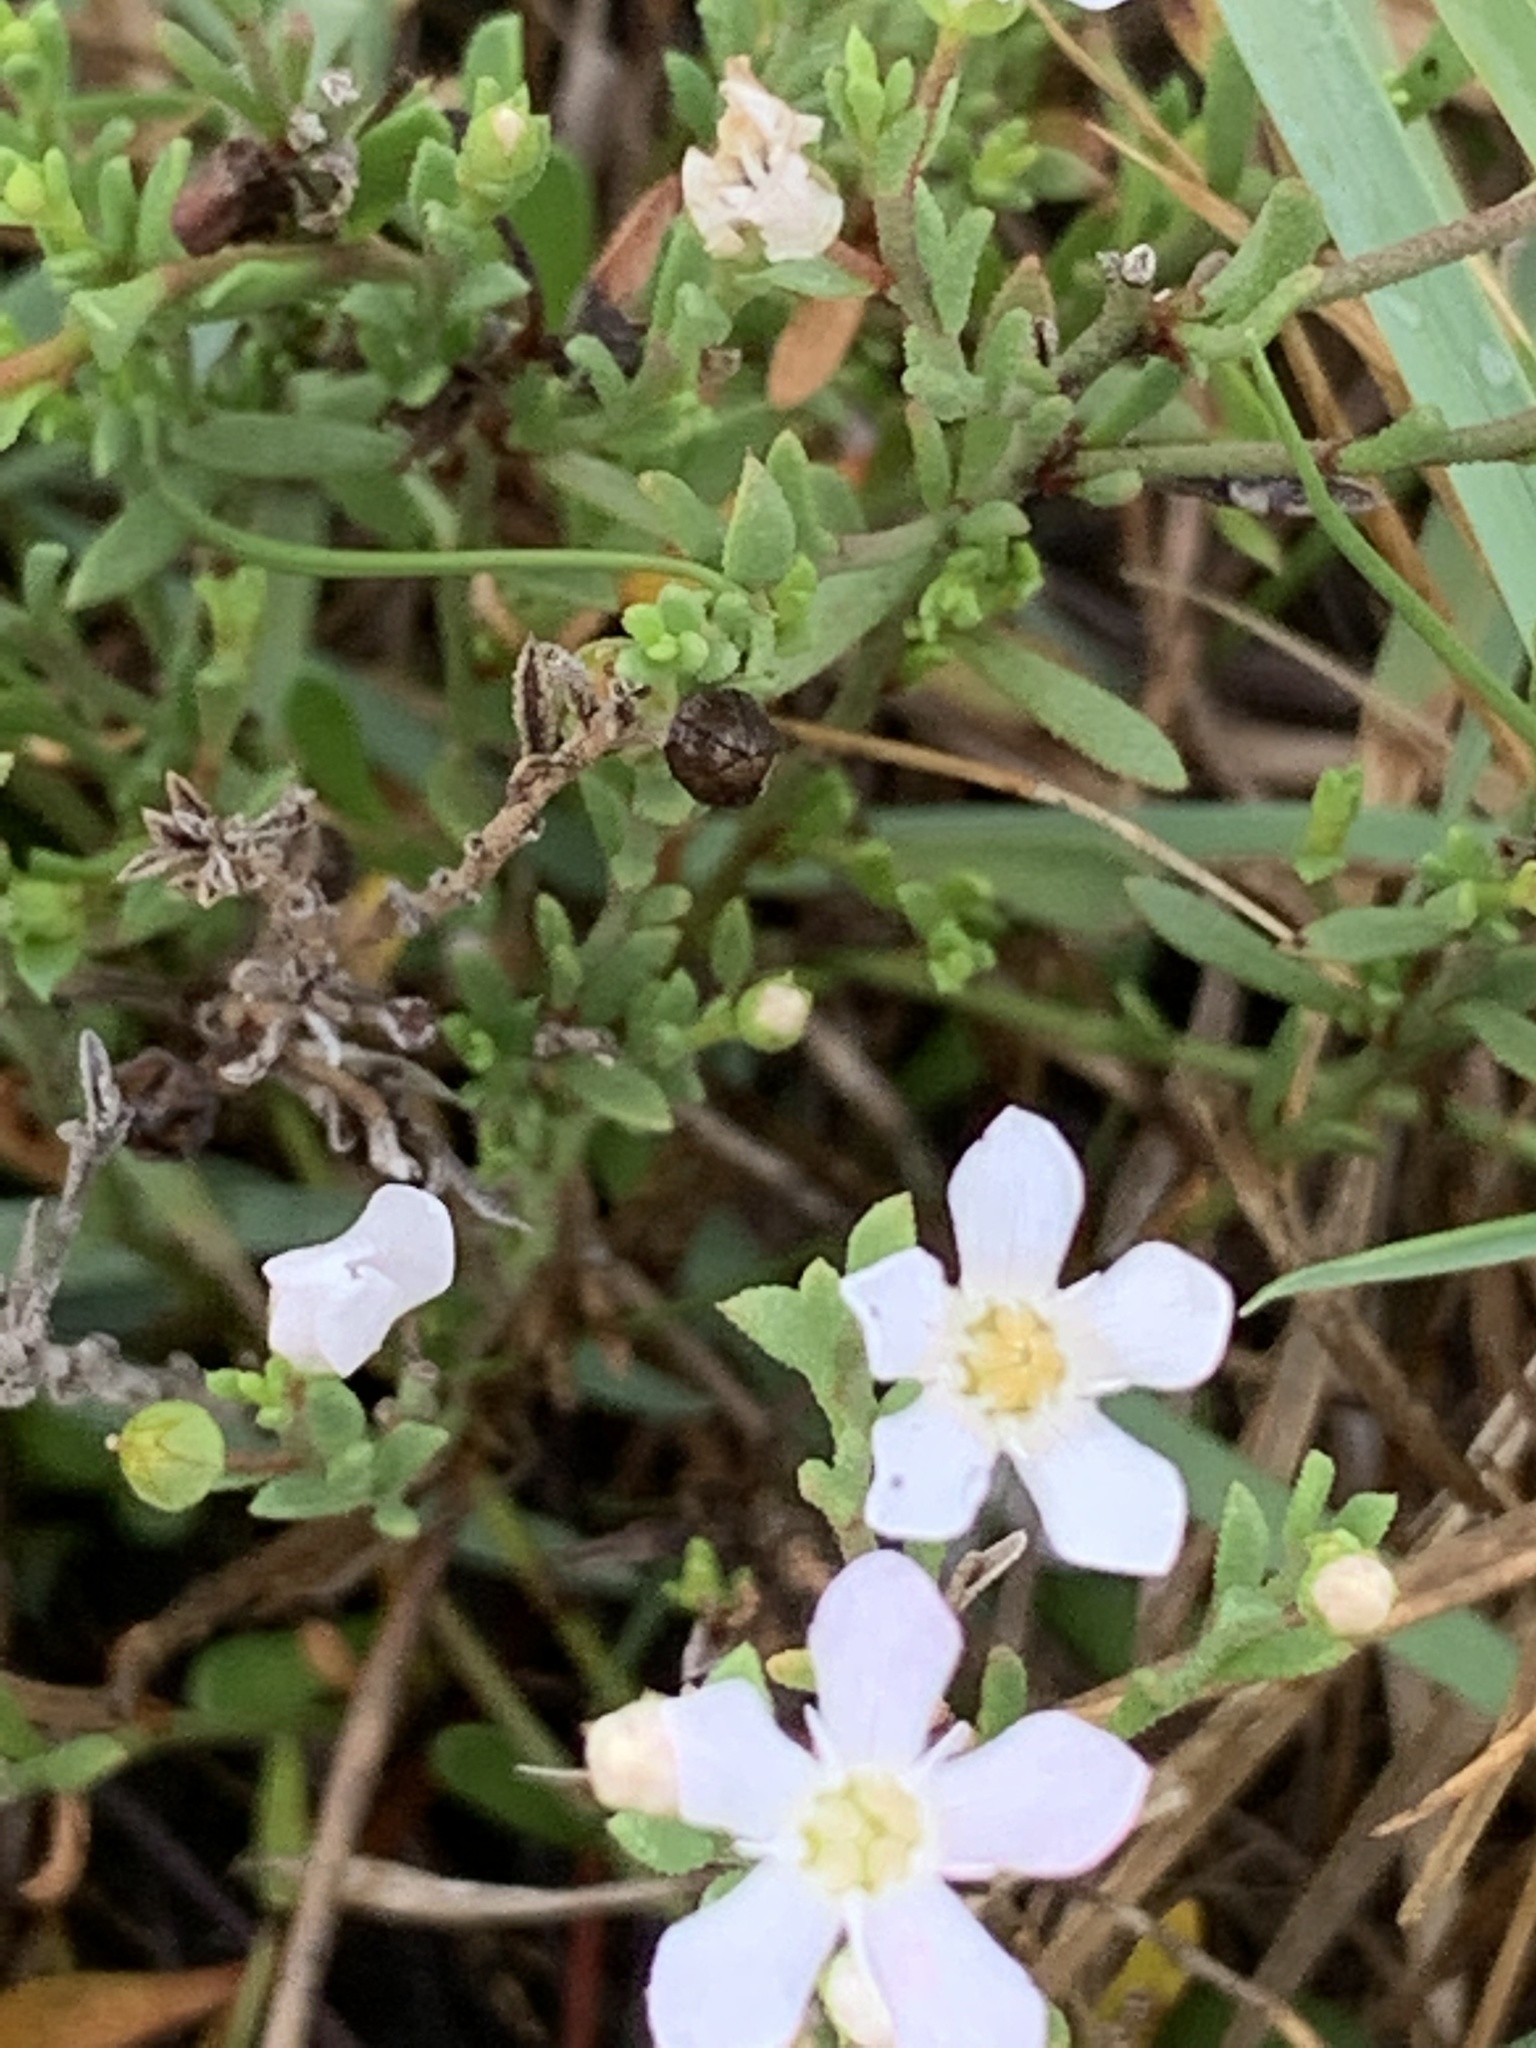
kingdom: Plantae
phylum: Tracheophyta
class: Magnoliopsida
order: Ericales
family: Primulaceae
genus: Samolus
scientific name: Samolus repens
